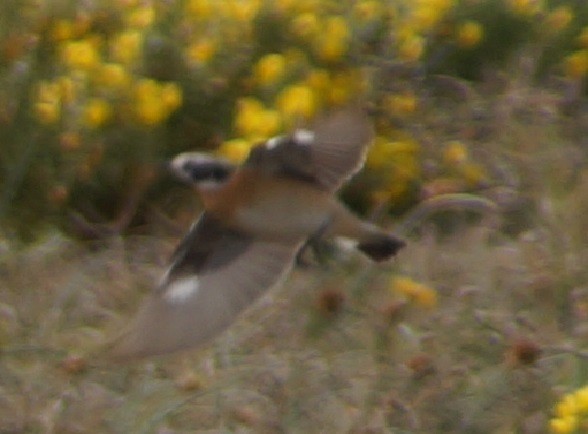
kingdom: Animalia
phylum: Chordata
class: Aves
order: Passeriformes
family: Muscicapidae
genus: Saxicola
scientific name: Saxicola rubetra
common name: Whinchat
